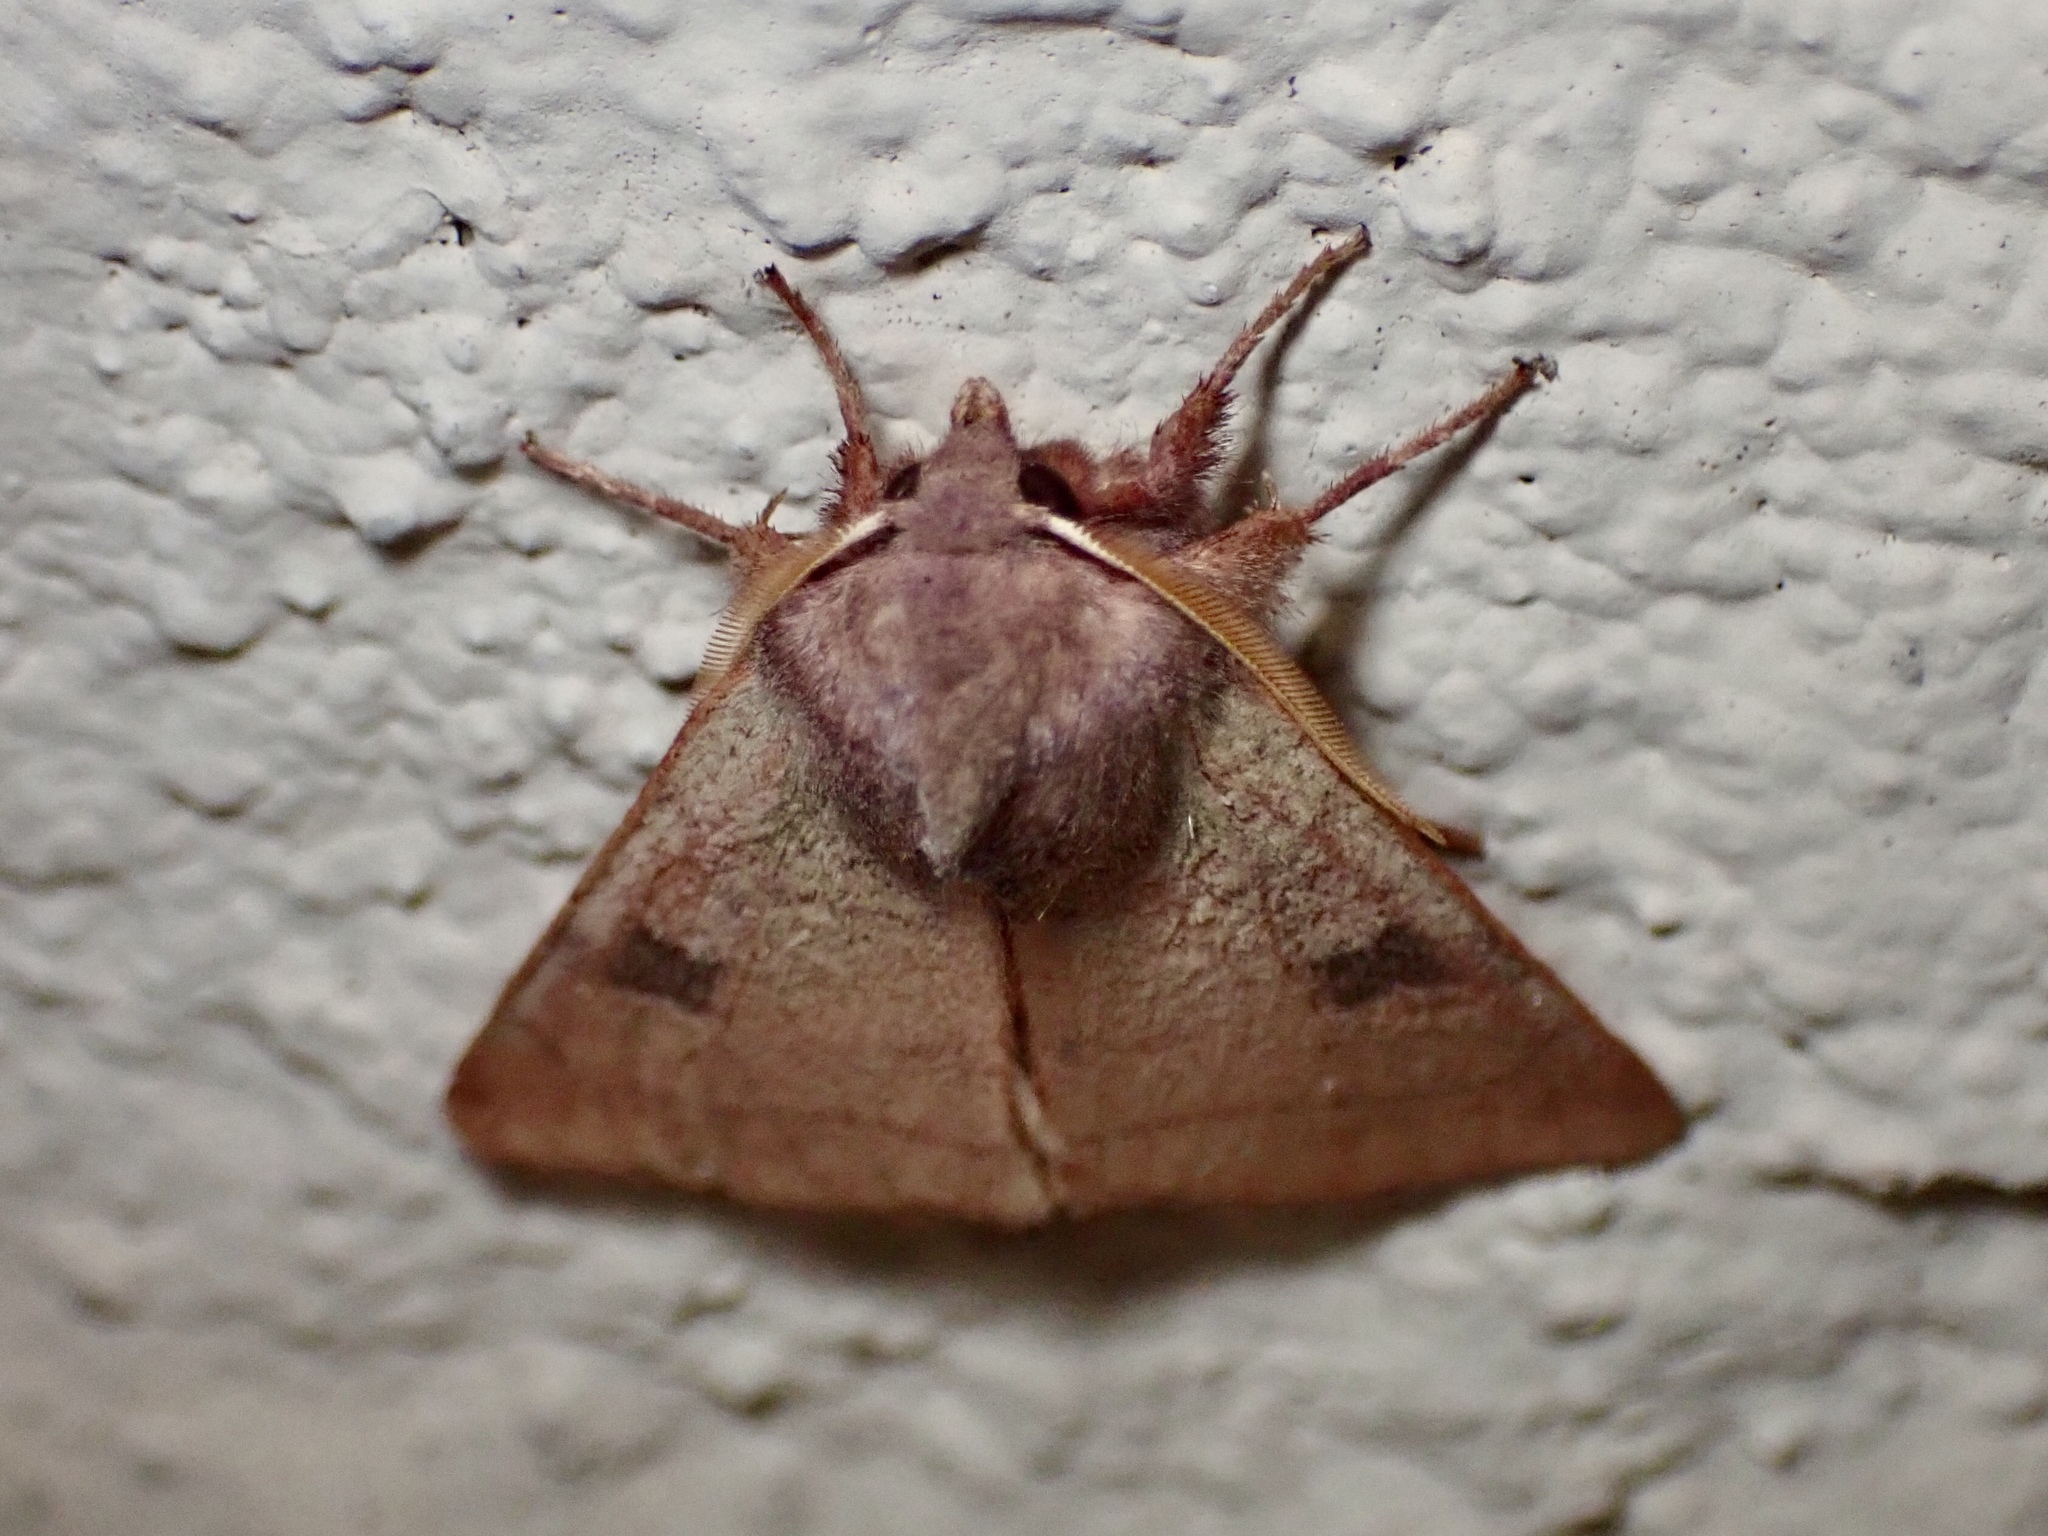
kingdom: Animalia
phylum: Arthropoda
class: Insecta
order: Lepidoptera
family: Noctuidae
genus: Choephora
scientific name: Choephora fungorum
